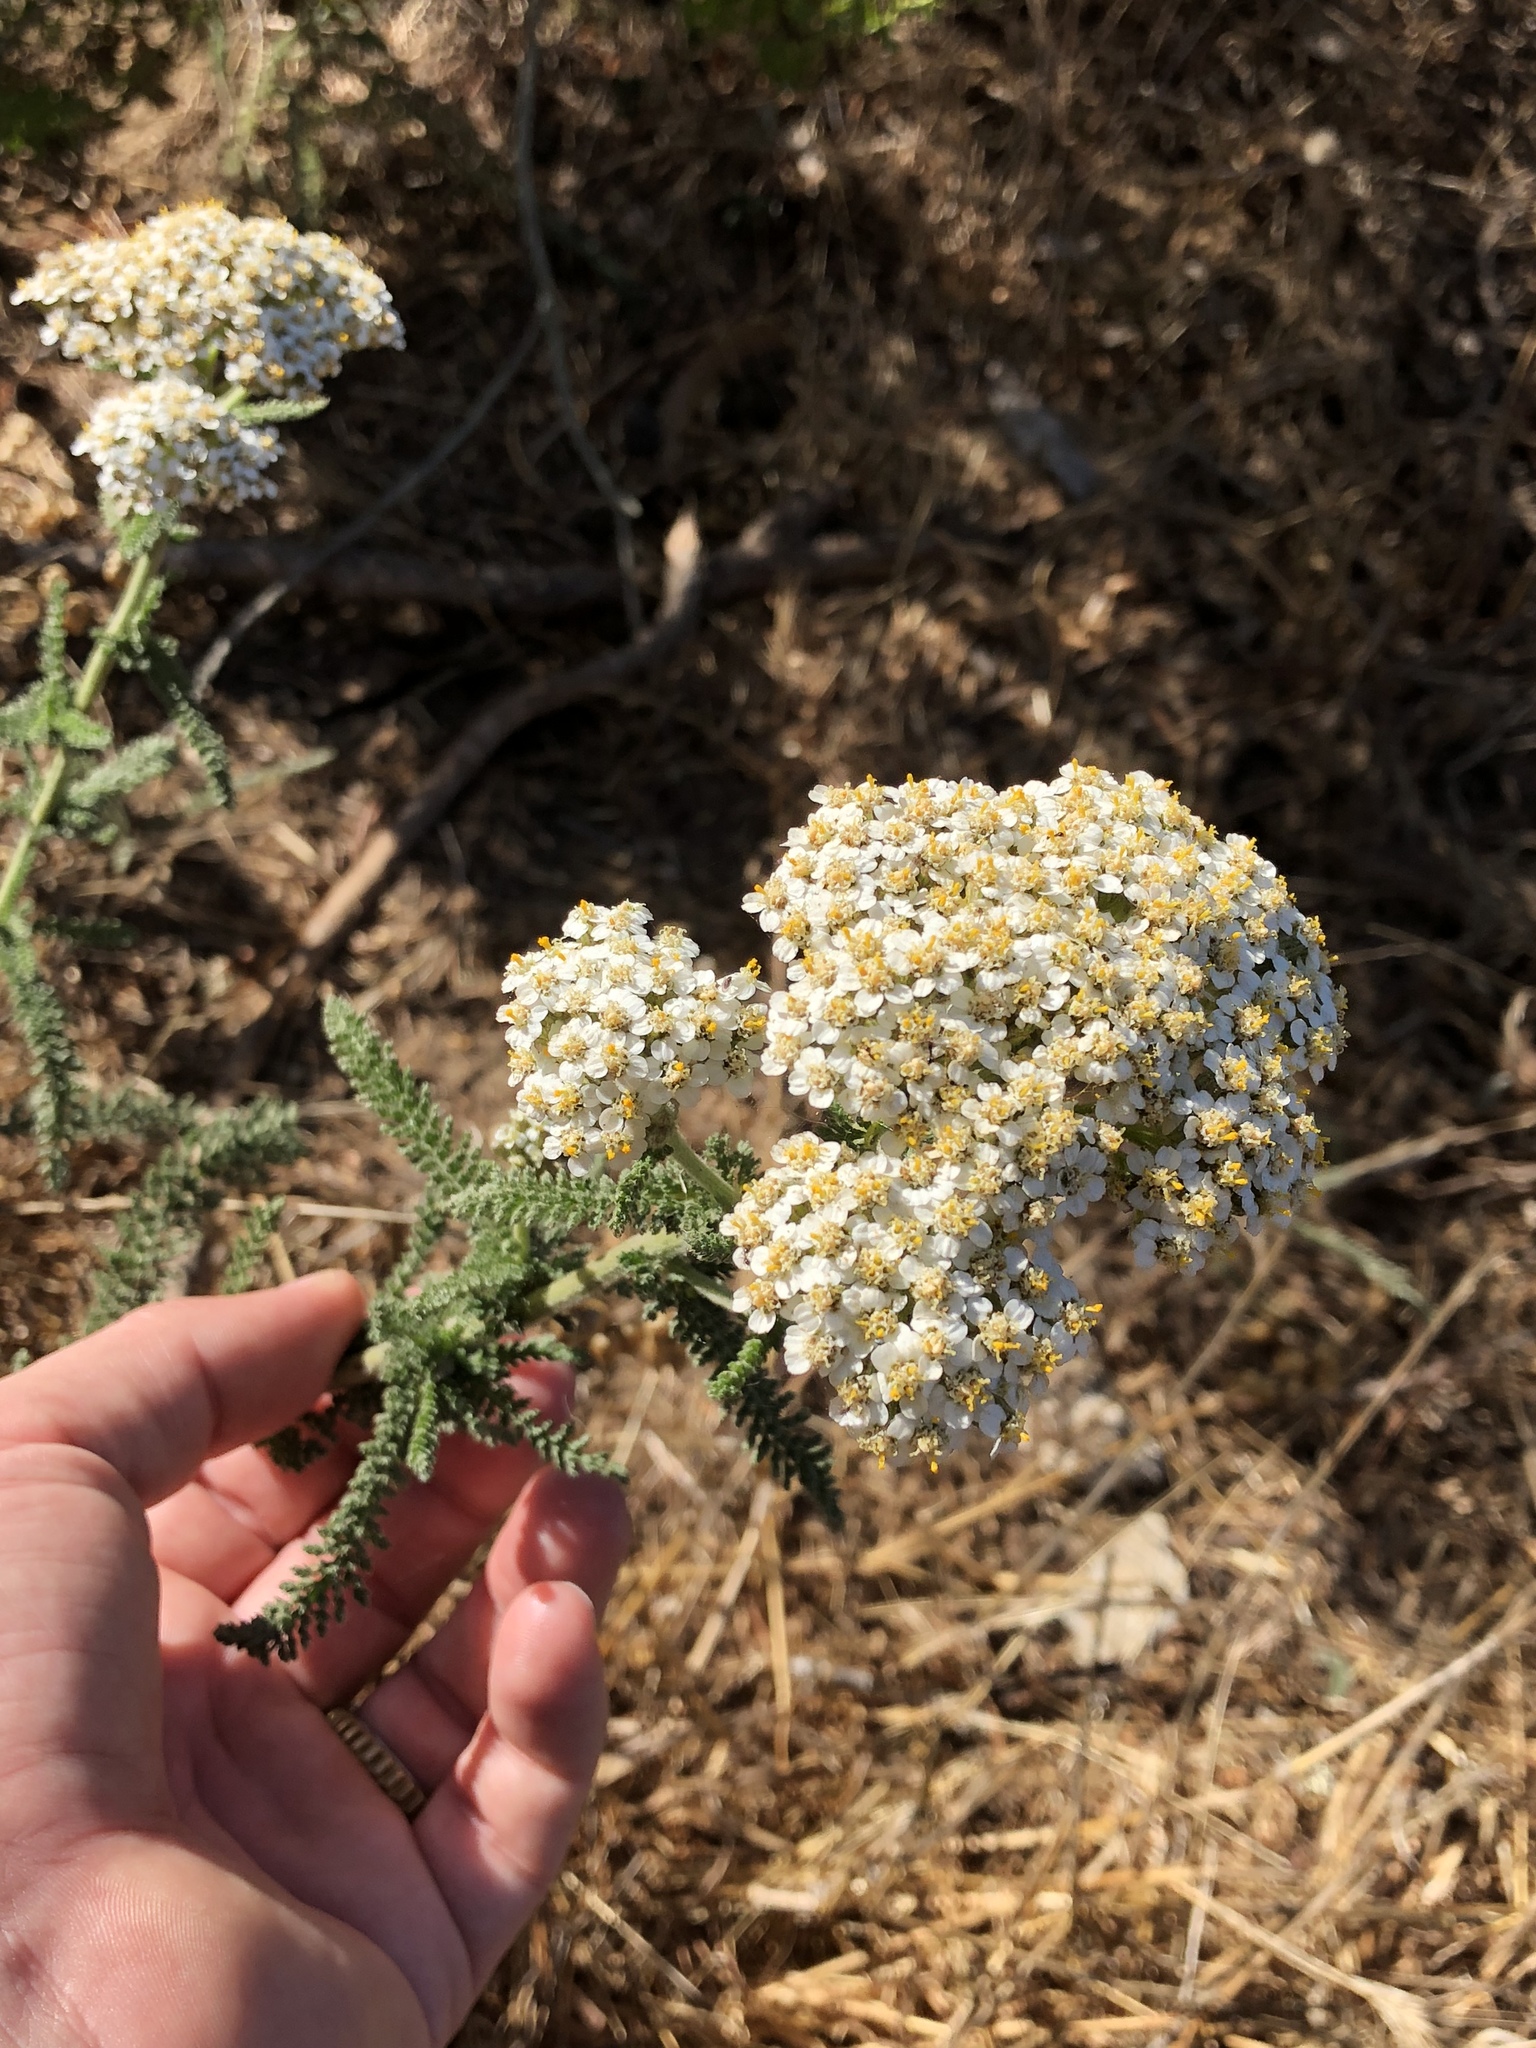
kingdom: Plantae
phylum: Tracheophyta
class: Magnoliopsida
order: Asterales
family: Asteraceae
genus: Achillea
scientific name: Achillea millefolium
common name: Yarrow
